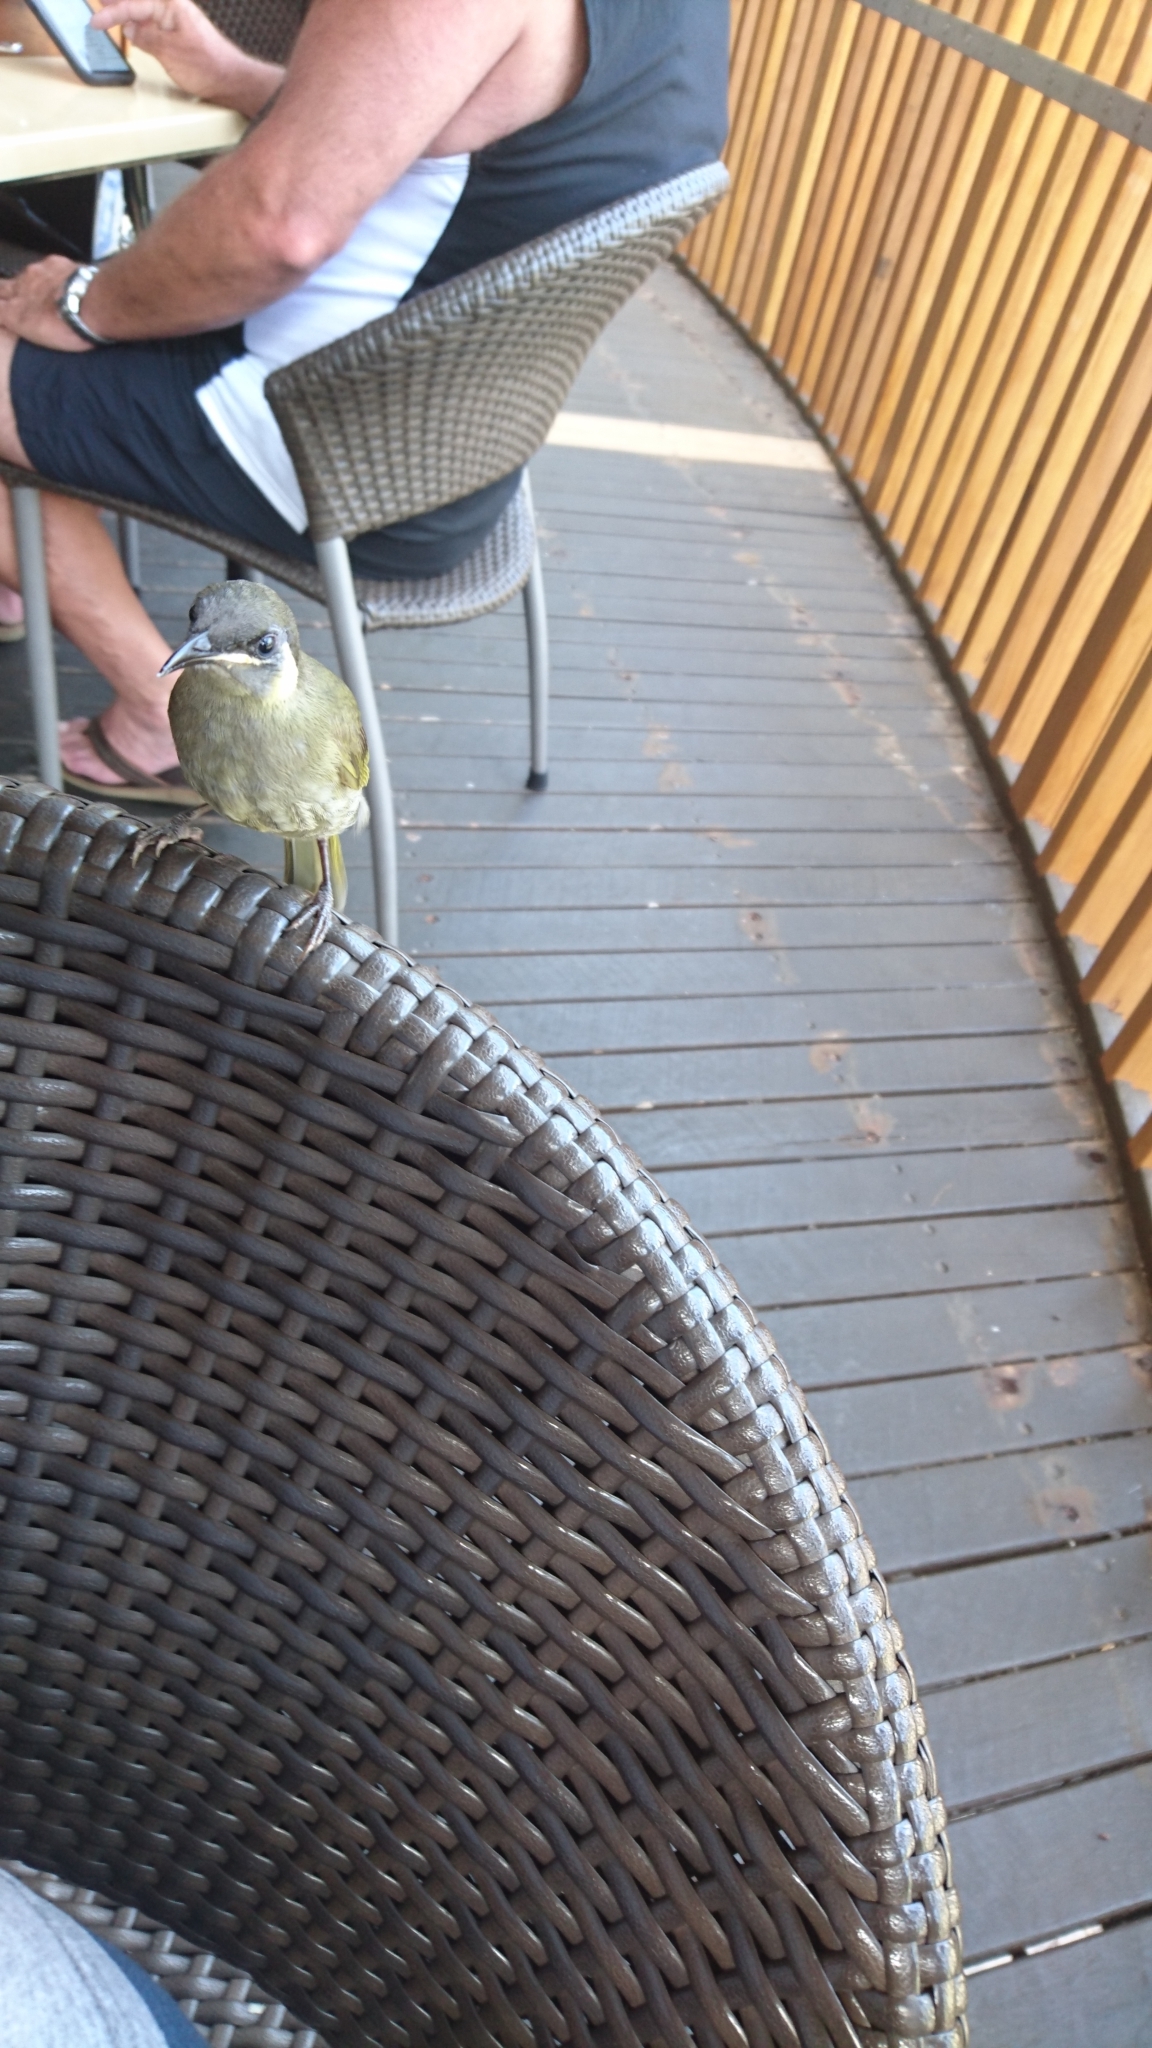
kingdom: Animalia
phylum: Chordata
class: Aves
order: Passeriformes
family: Meliphagidae
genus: Meliphaga
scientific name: Meliphaga lewinii
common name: Lewin's honeyeater
